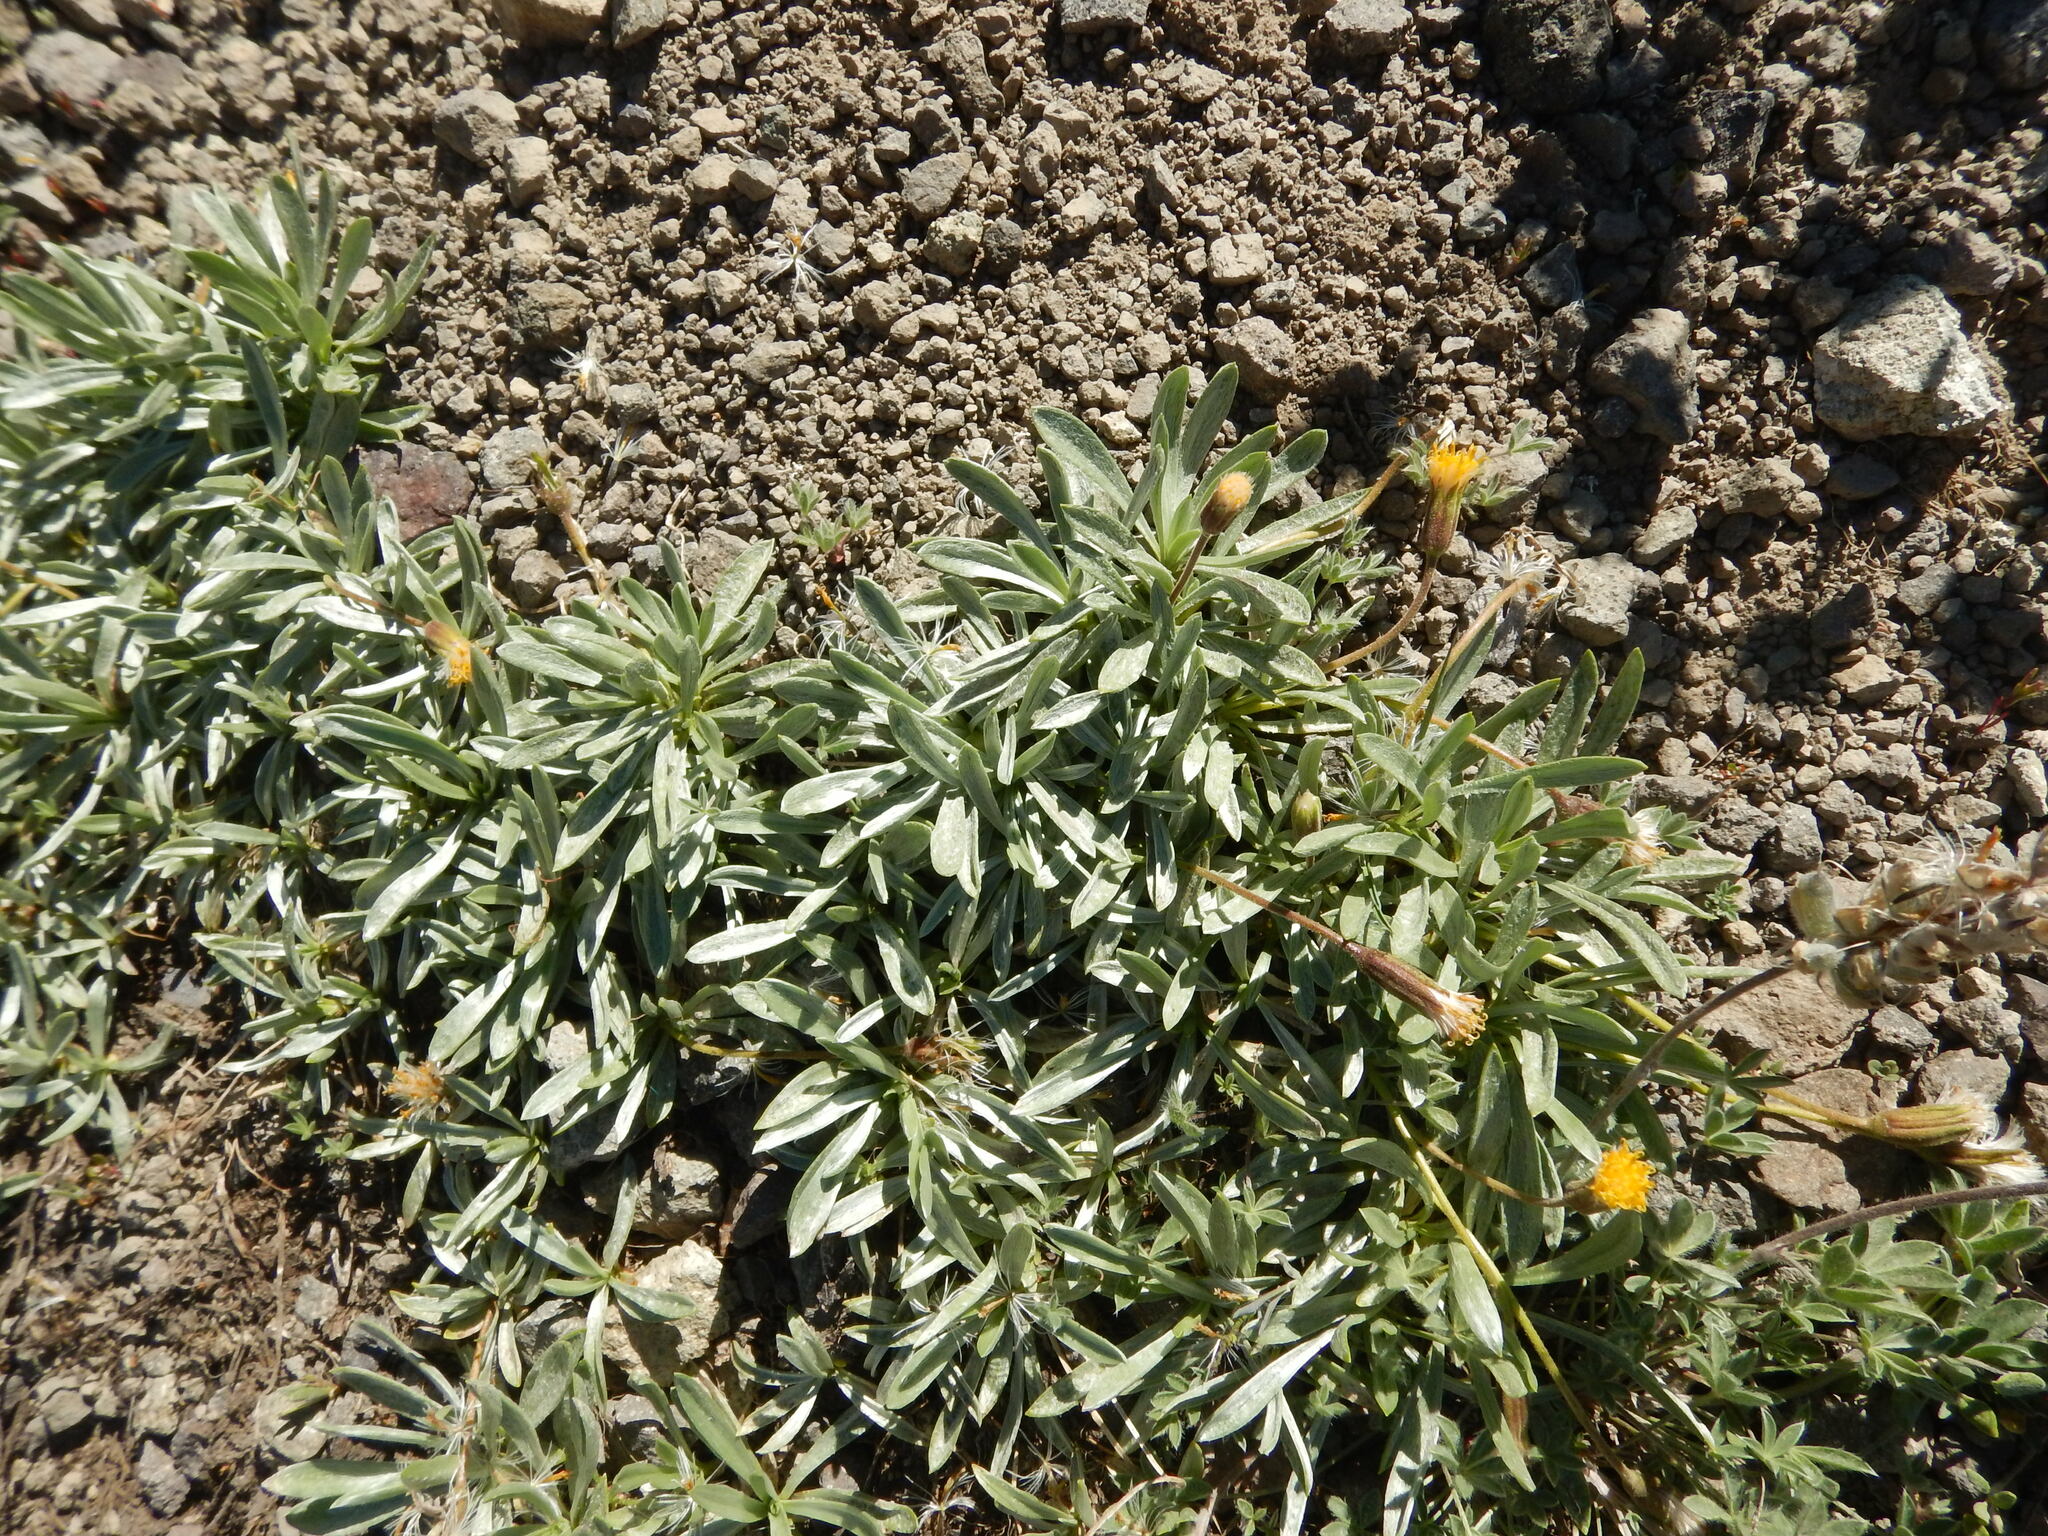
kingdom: Plantae
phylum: Tracheophyta
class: Magnoliopsida
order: Asterales
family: Asteraceae
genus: Raillardella
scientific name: Raillardella argentea
